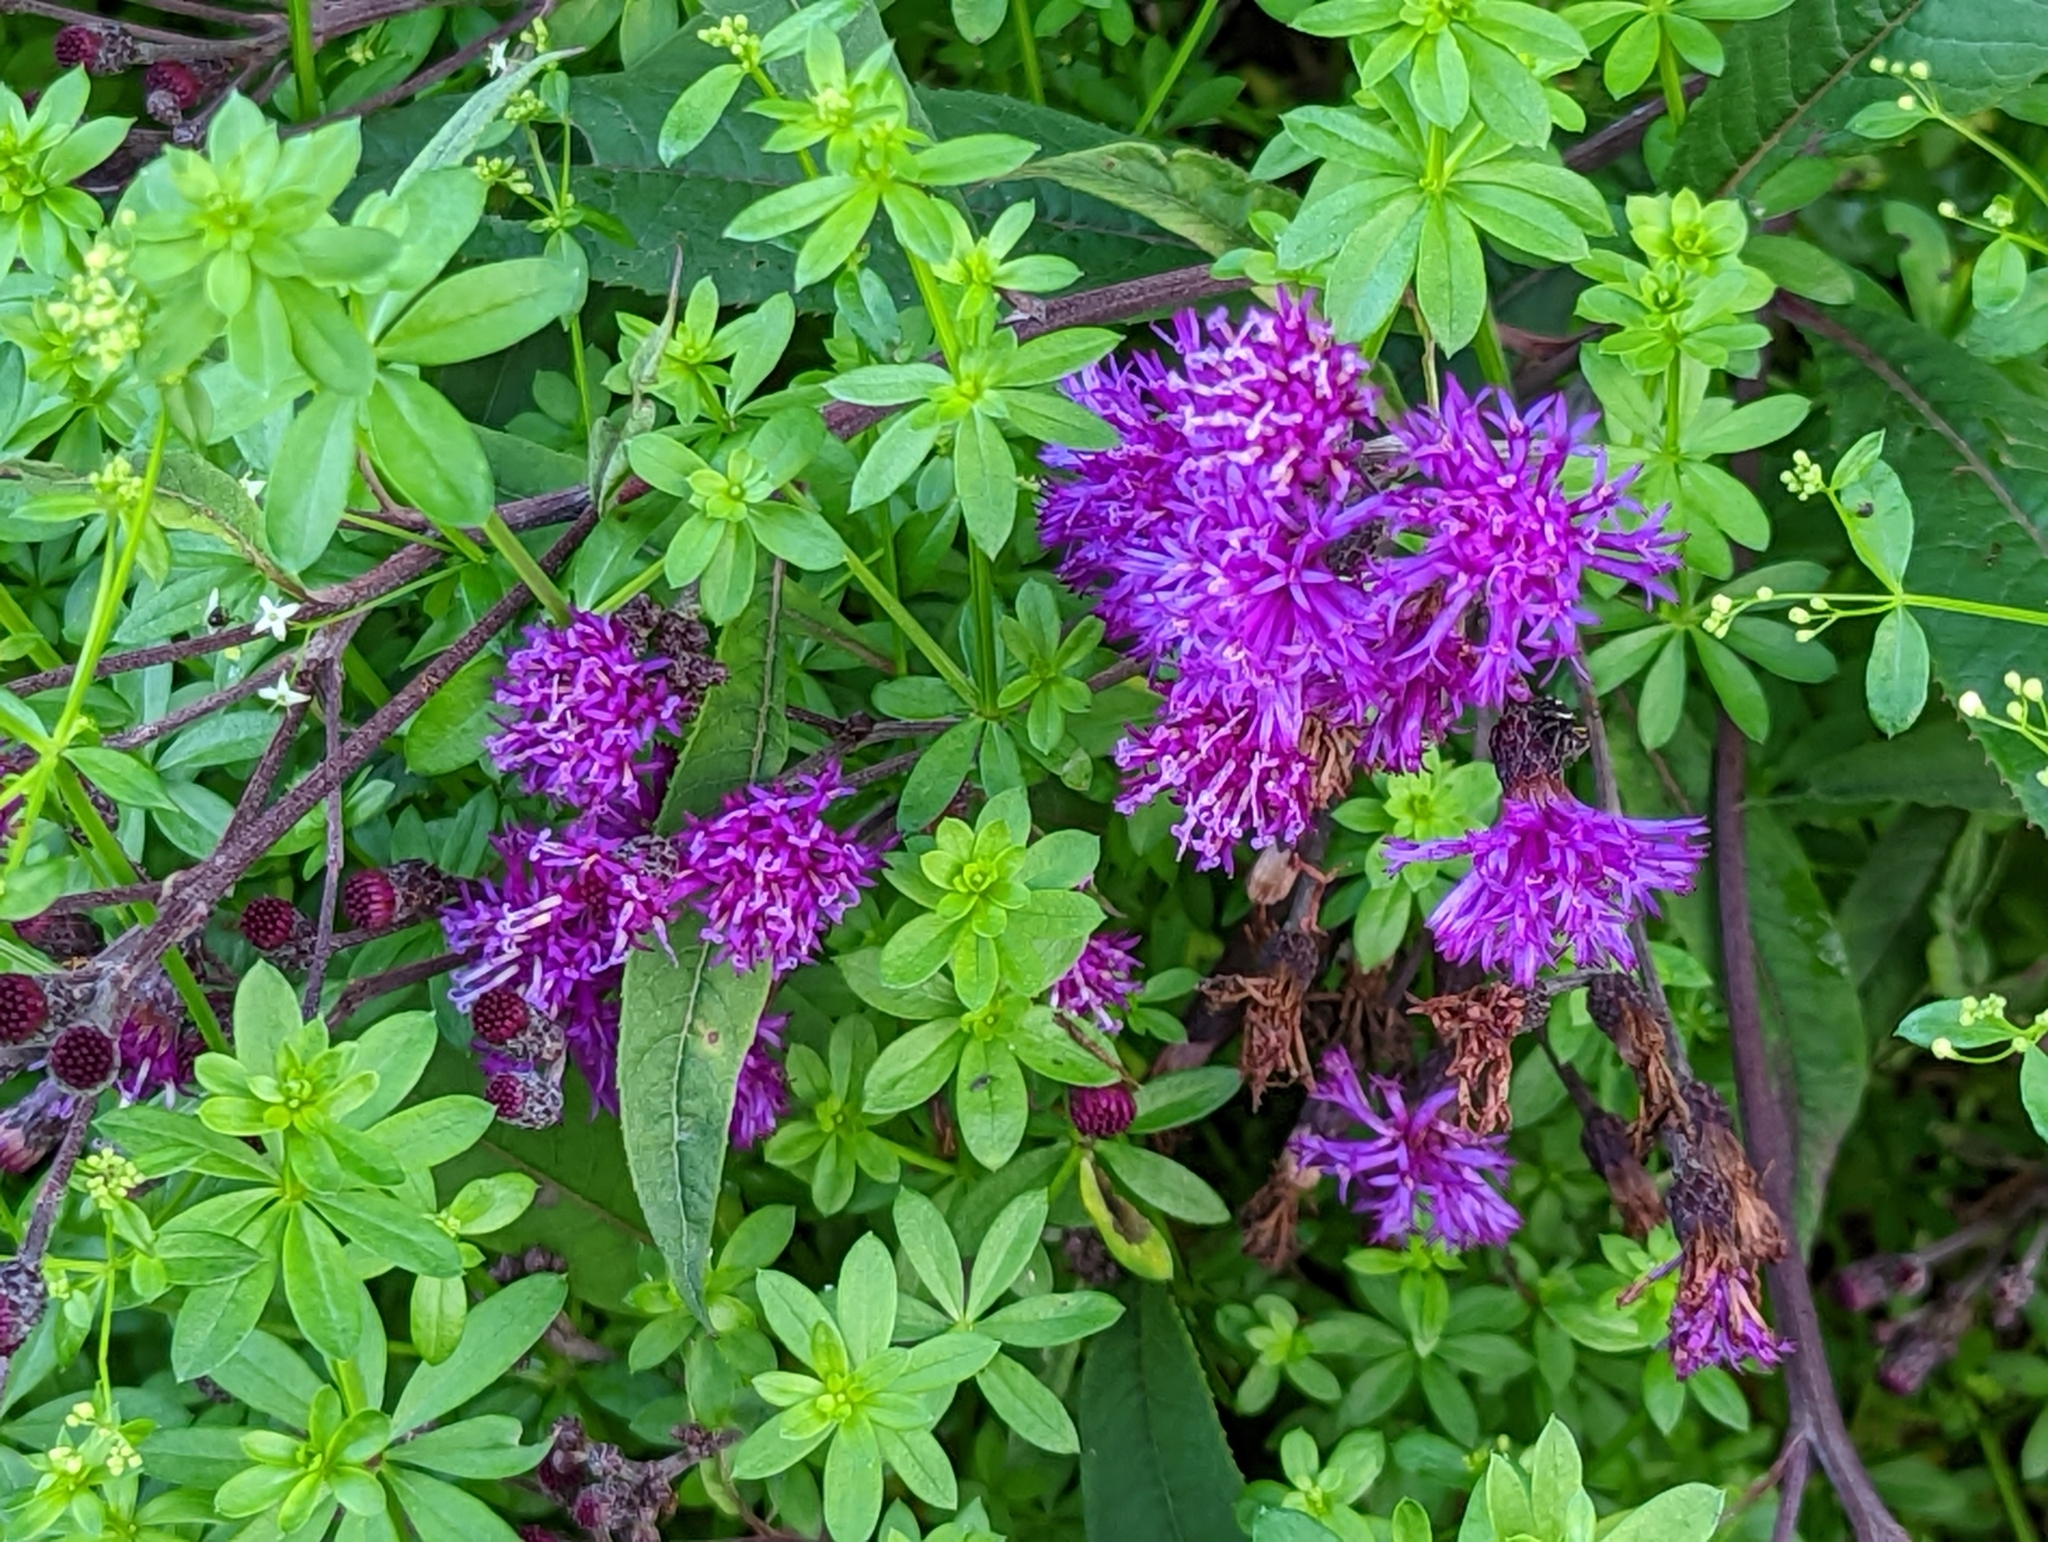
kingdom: Plantae
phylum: Tracheophyta
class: Magnoliopsida
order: Asterales
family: Asteraceae
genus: Vernonia
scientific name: Vernonia gigantea
